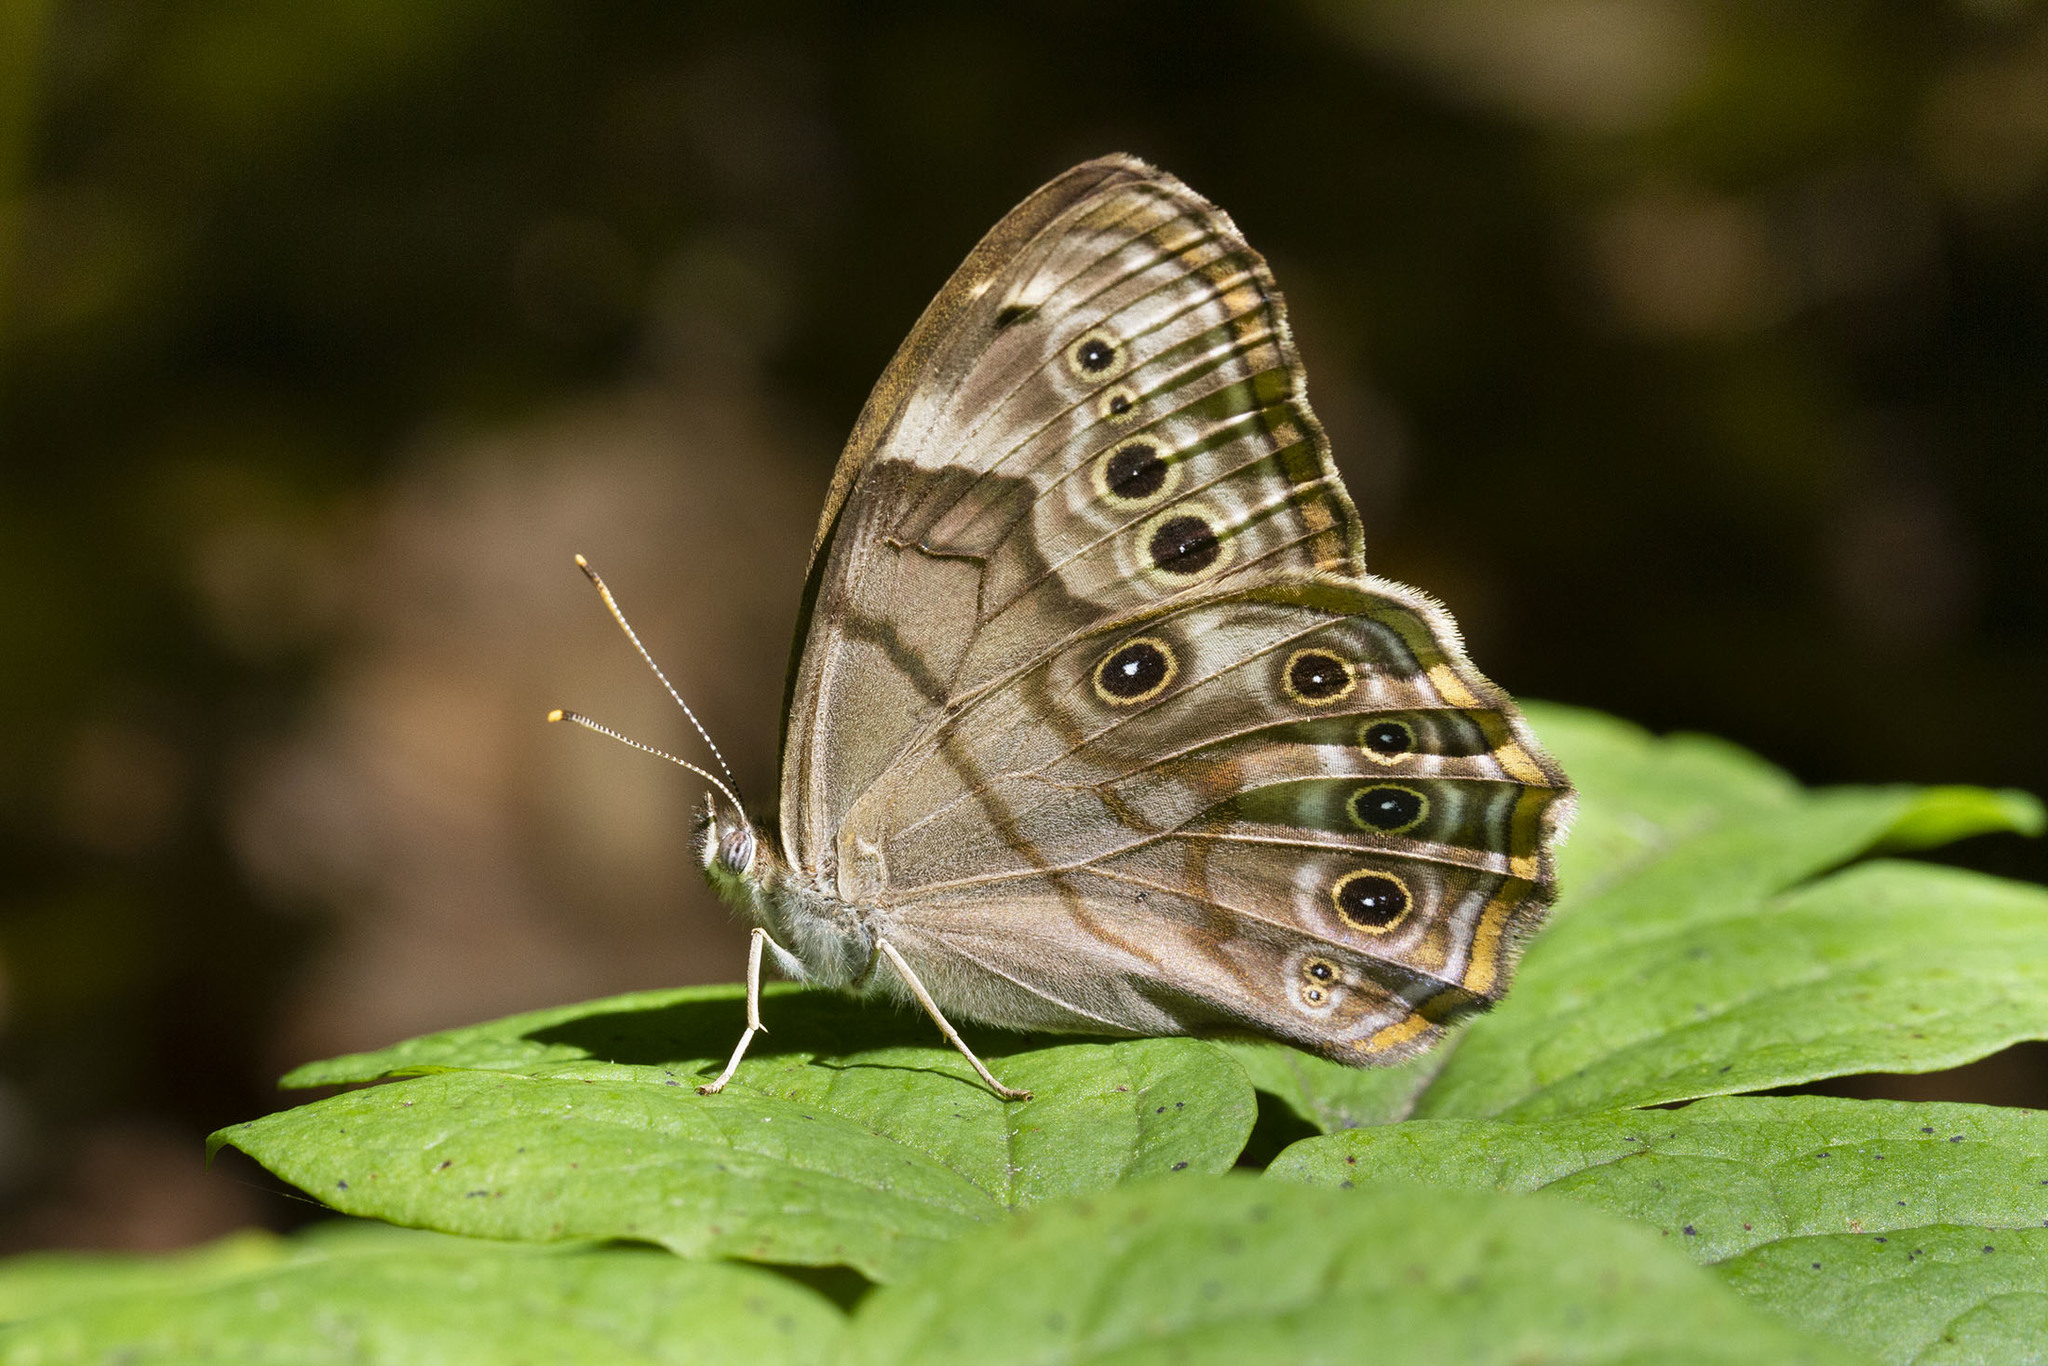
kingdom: Animalia
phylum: Arthropoda
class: Insecta
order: Lepidoptera
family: Nymphalidae
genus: Lethe
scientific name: Lethe anthedon
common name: Northern pearly-eye
